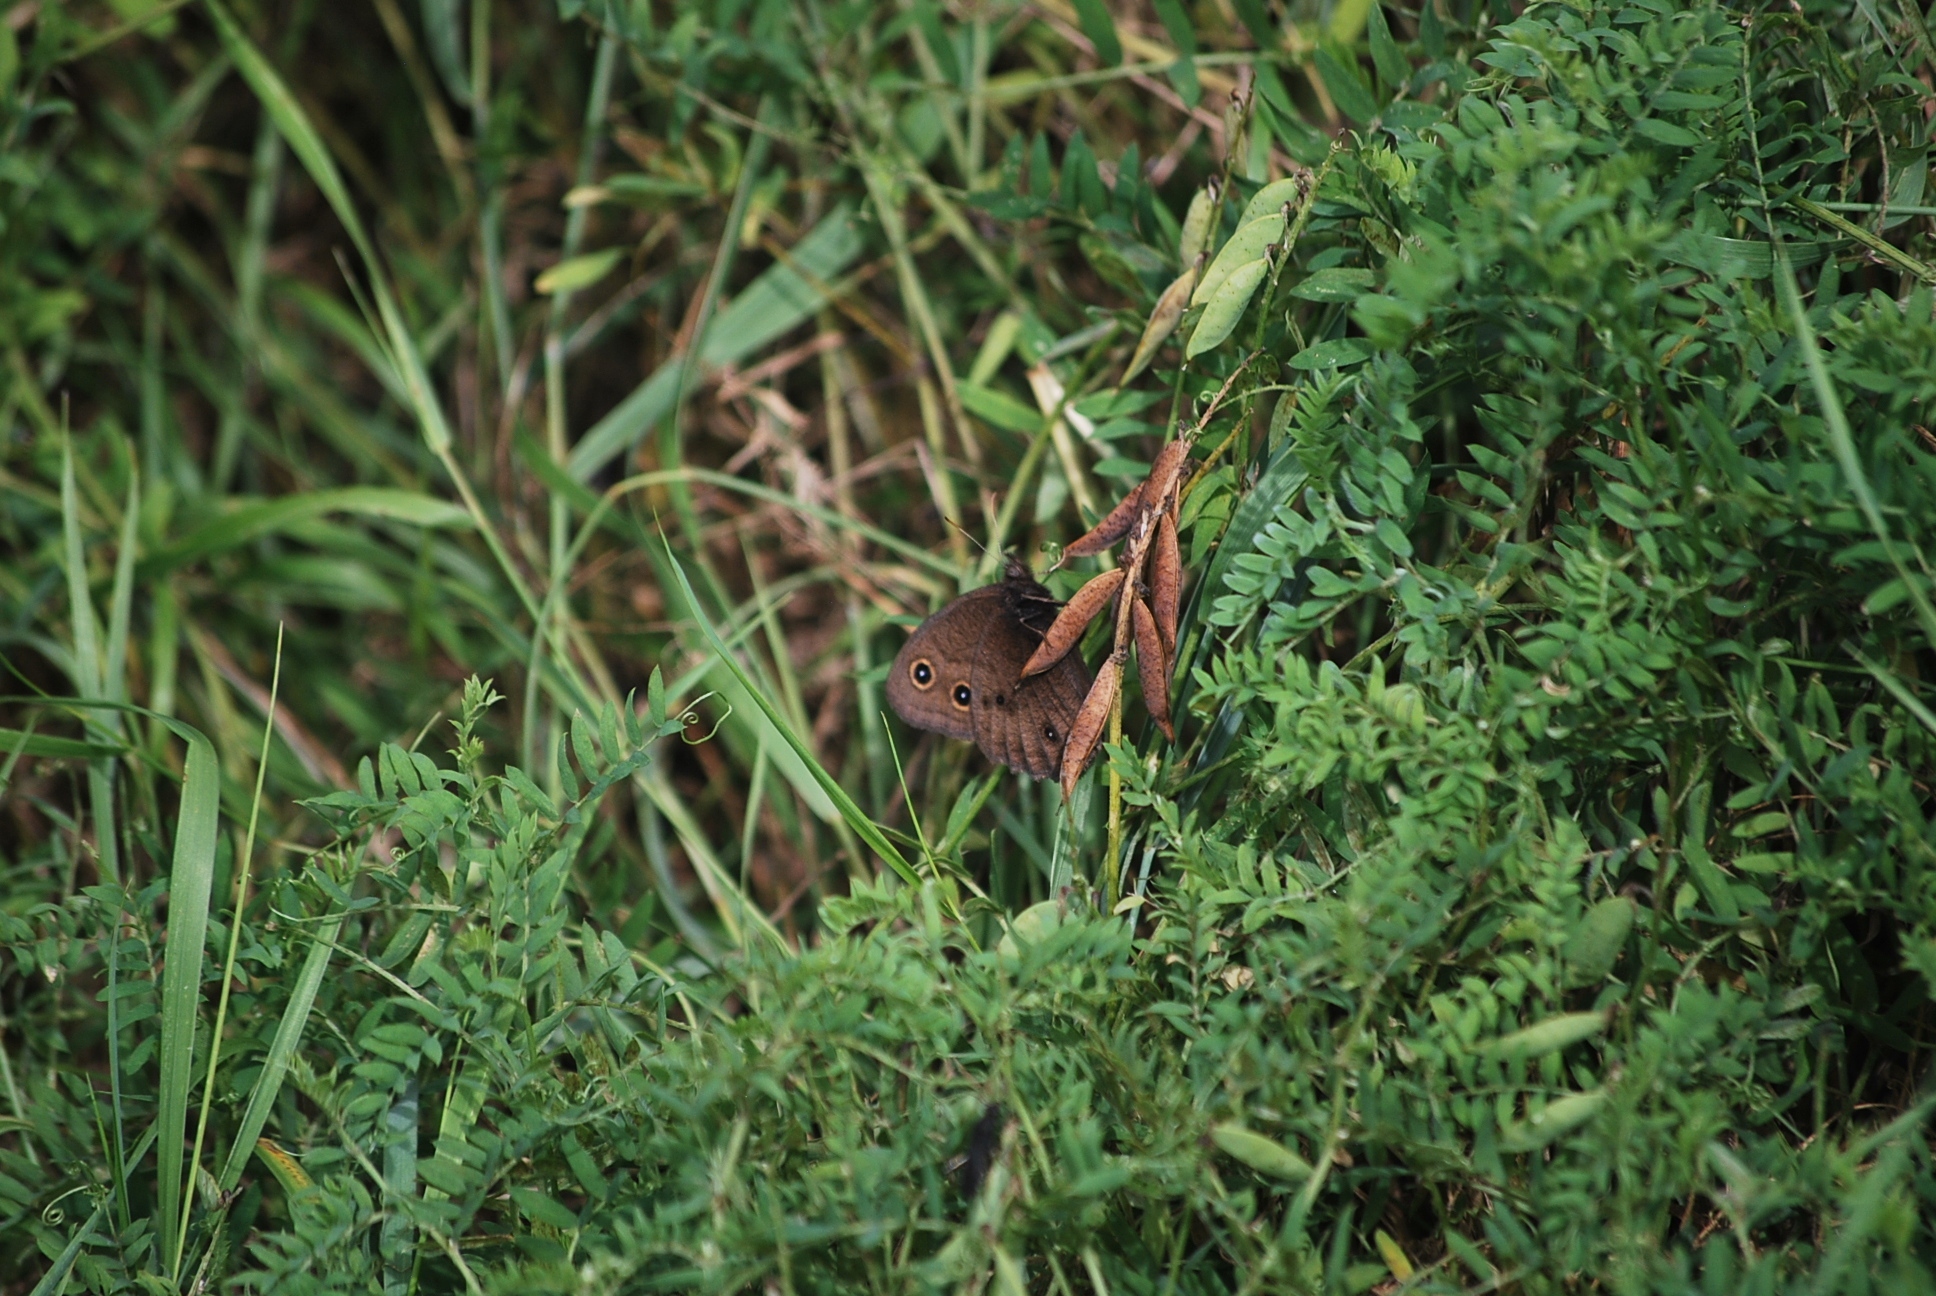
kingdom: Animalia
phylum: Arthropoda
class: Insecta
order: Lepidoptera
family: Nymphalidae
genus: Cercyonis
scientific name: Cercyonis pegala
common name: Common wood-nymph
